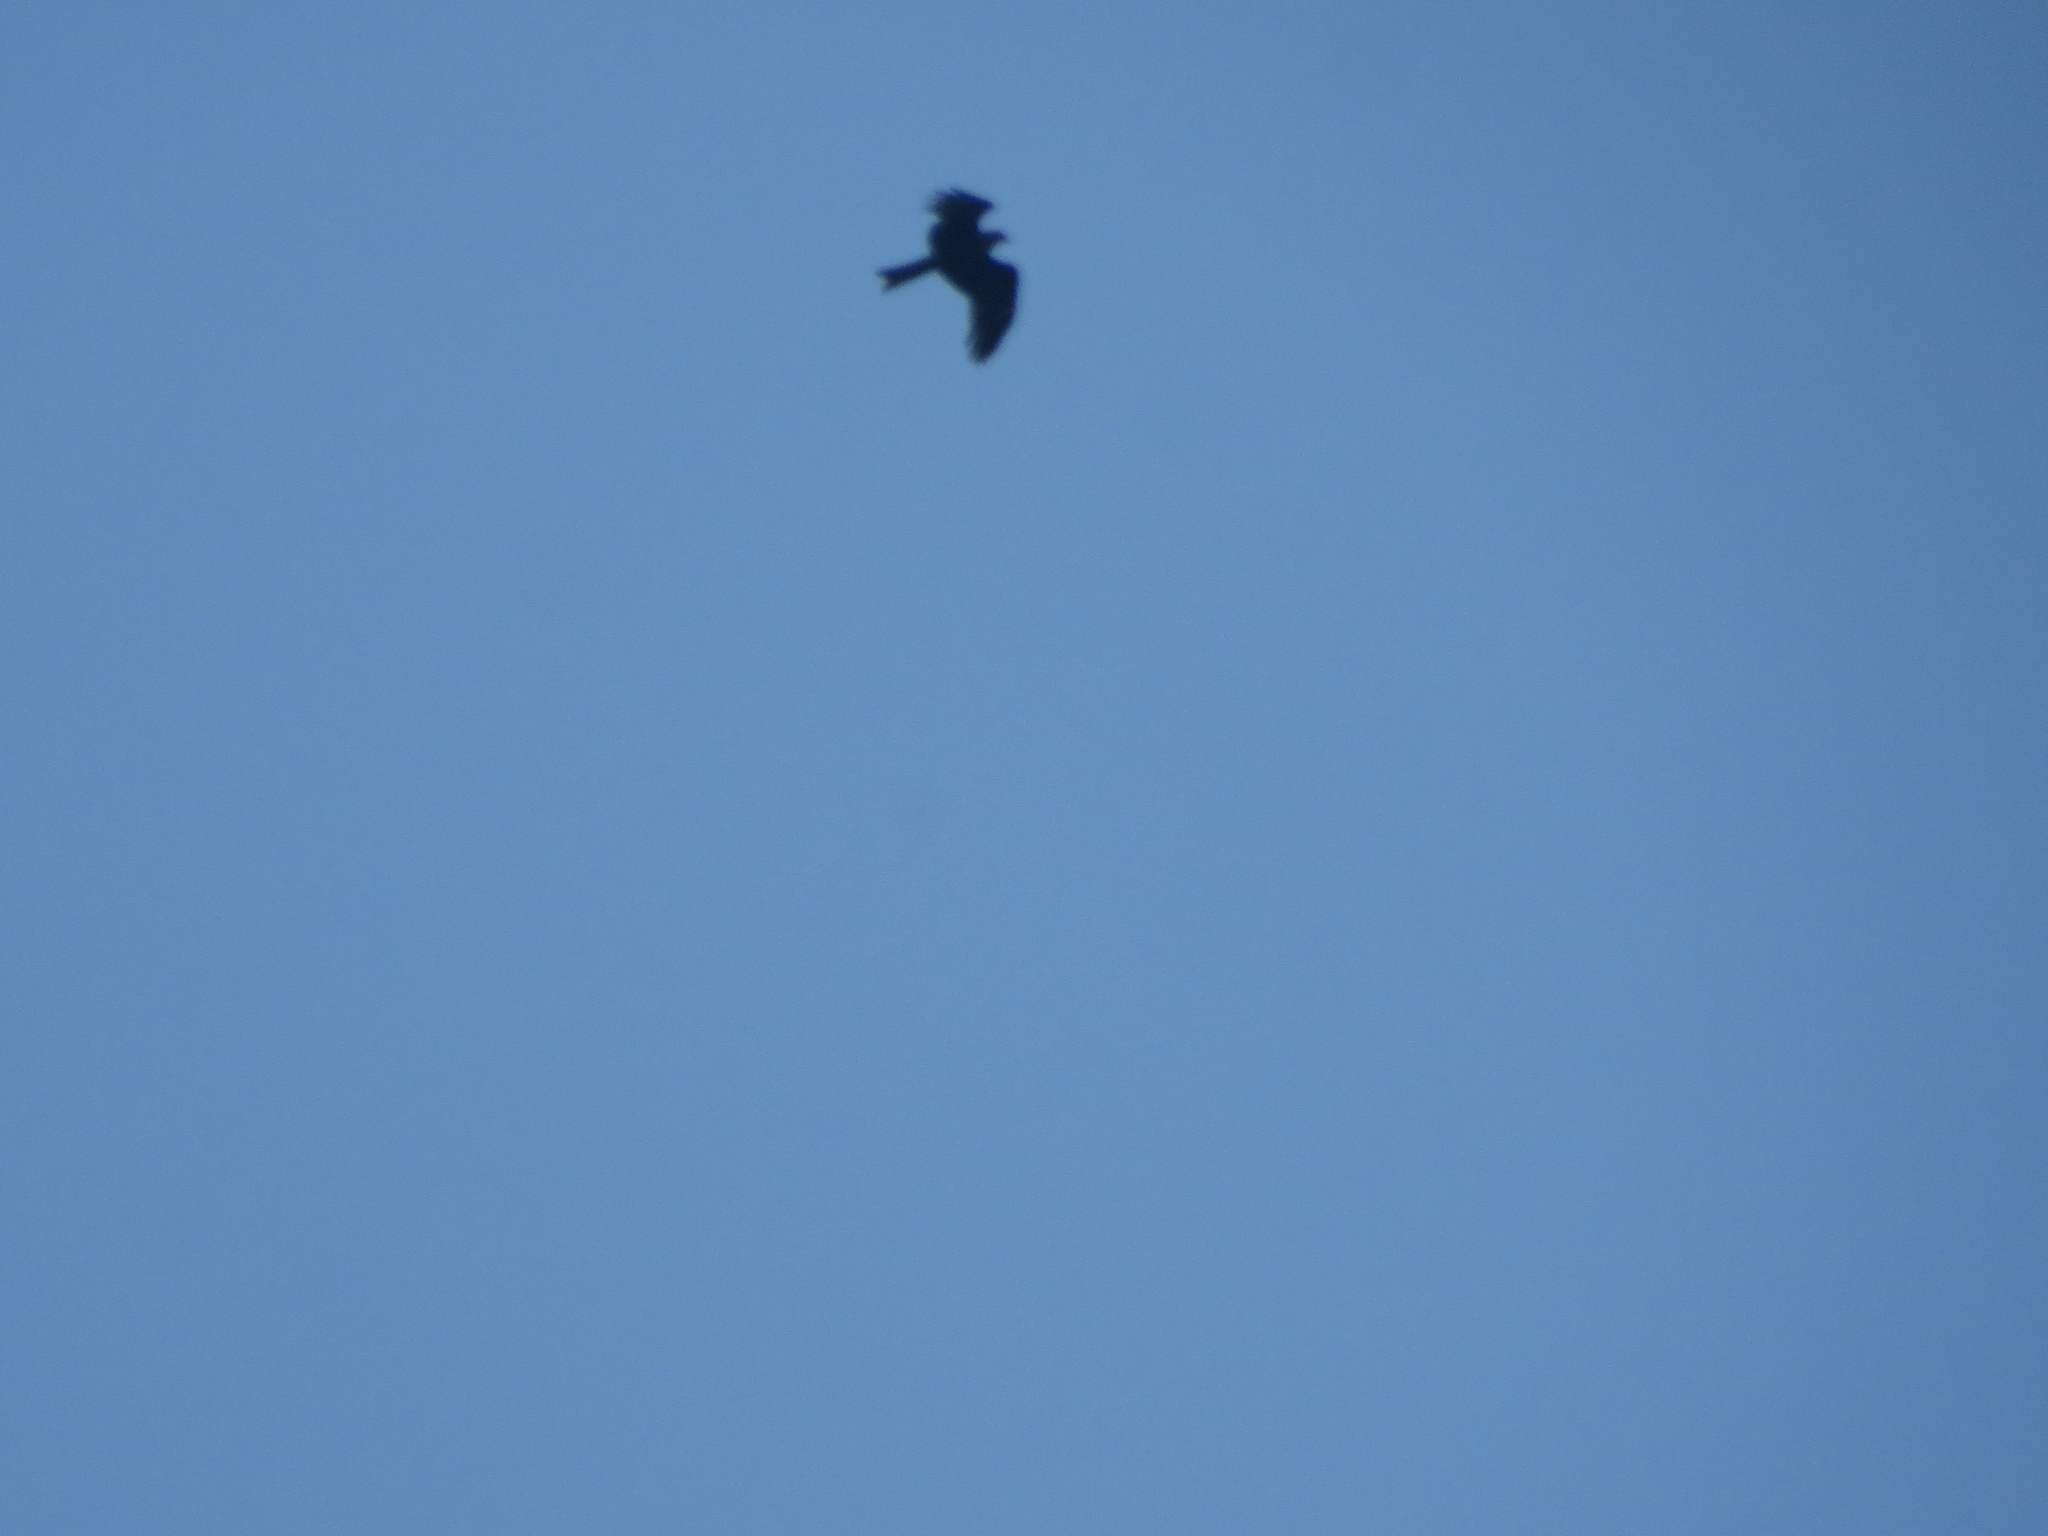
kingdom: Animalia
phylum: Chordata
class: Aves
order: Accipitriformes
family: Accipitridae
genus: Milvus
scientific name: Milvus migrans
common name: Black kite
